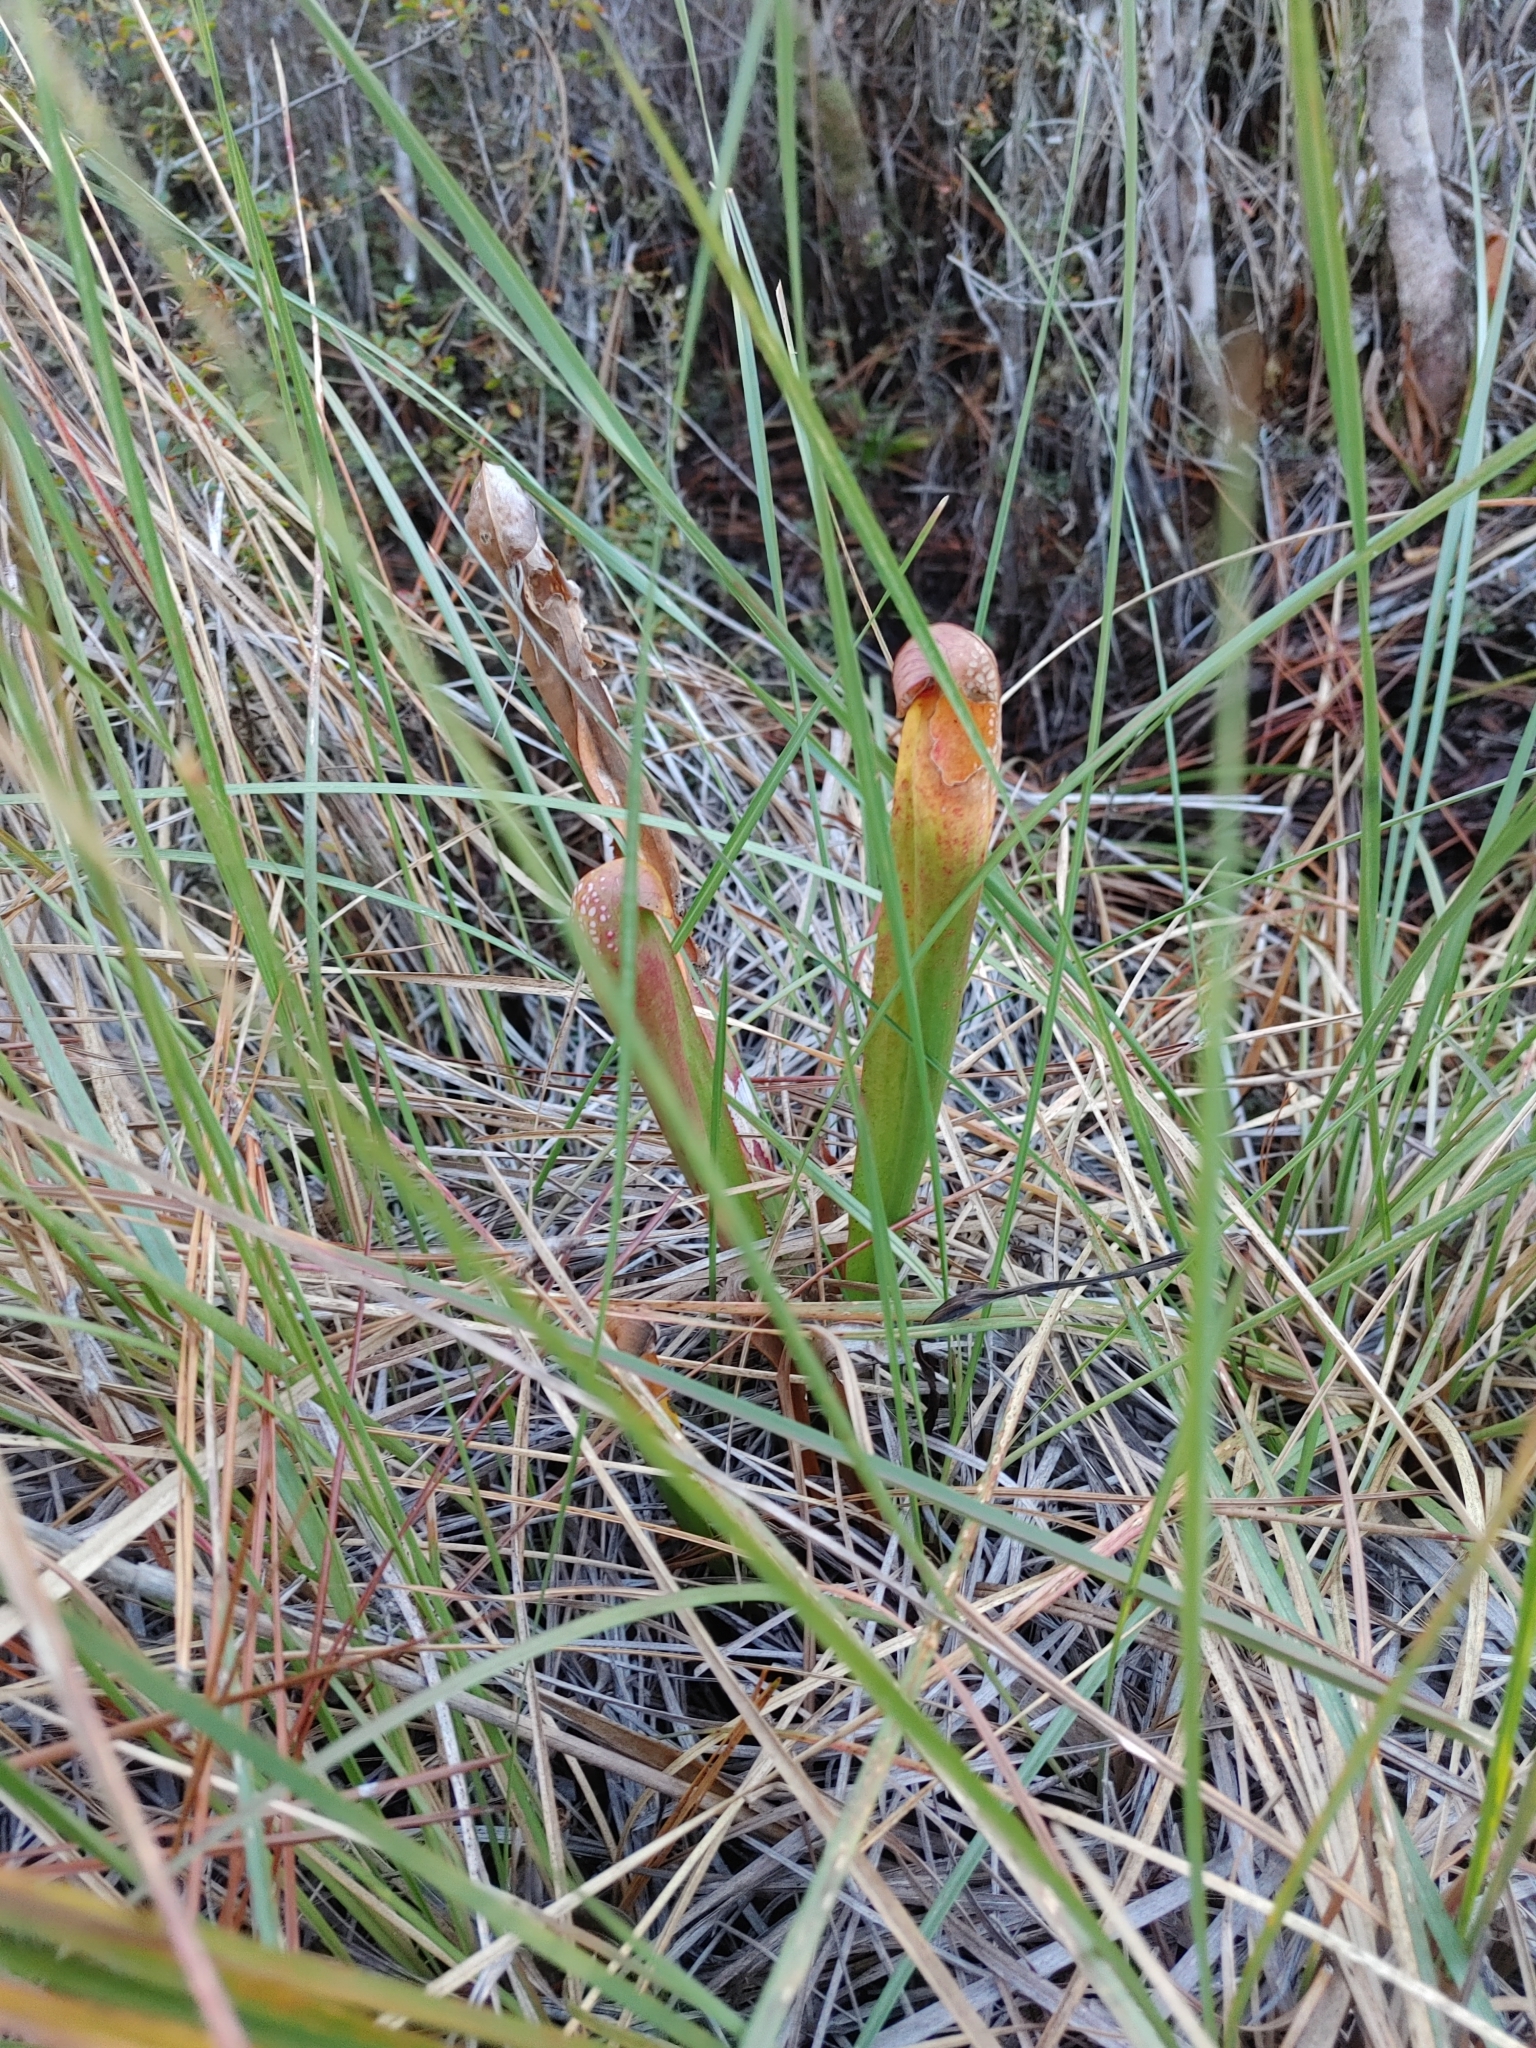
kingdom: Plantae
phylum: Tracheophyta
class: Magnoliopsida
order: Ericales
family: Sarraceniaceae
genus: Sarracenia
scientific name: Sarracenia minor
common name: Rainhat-trumpet
